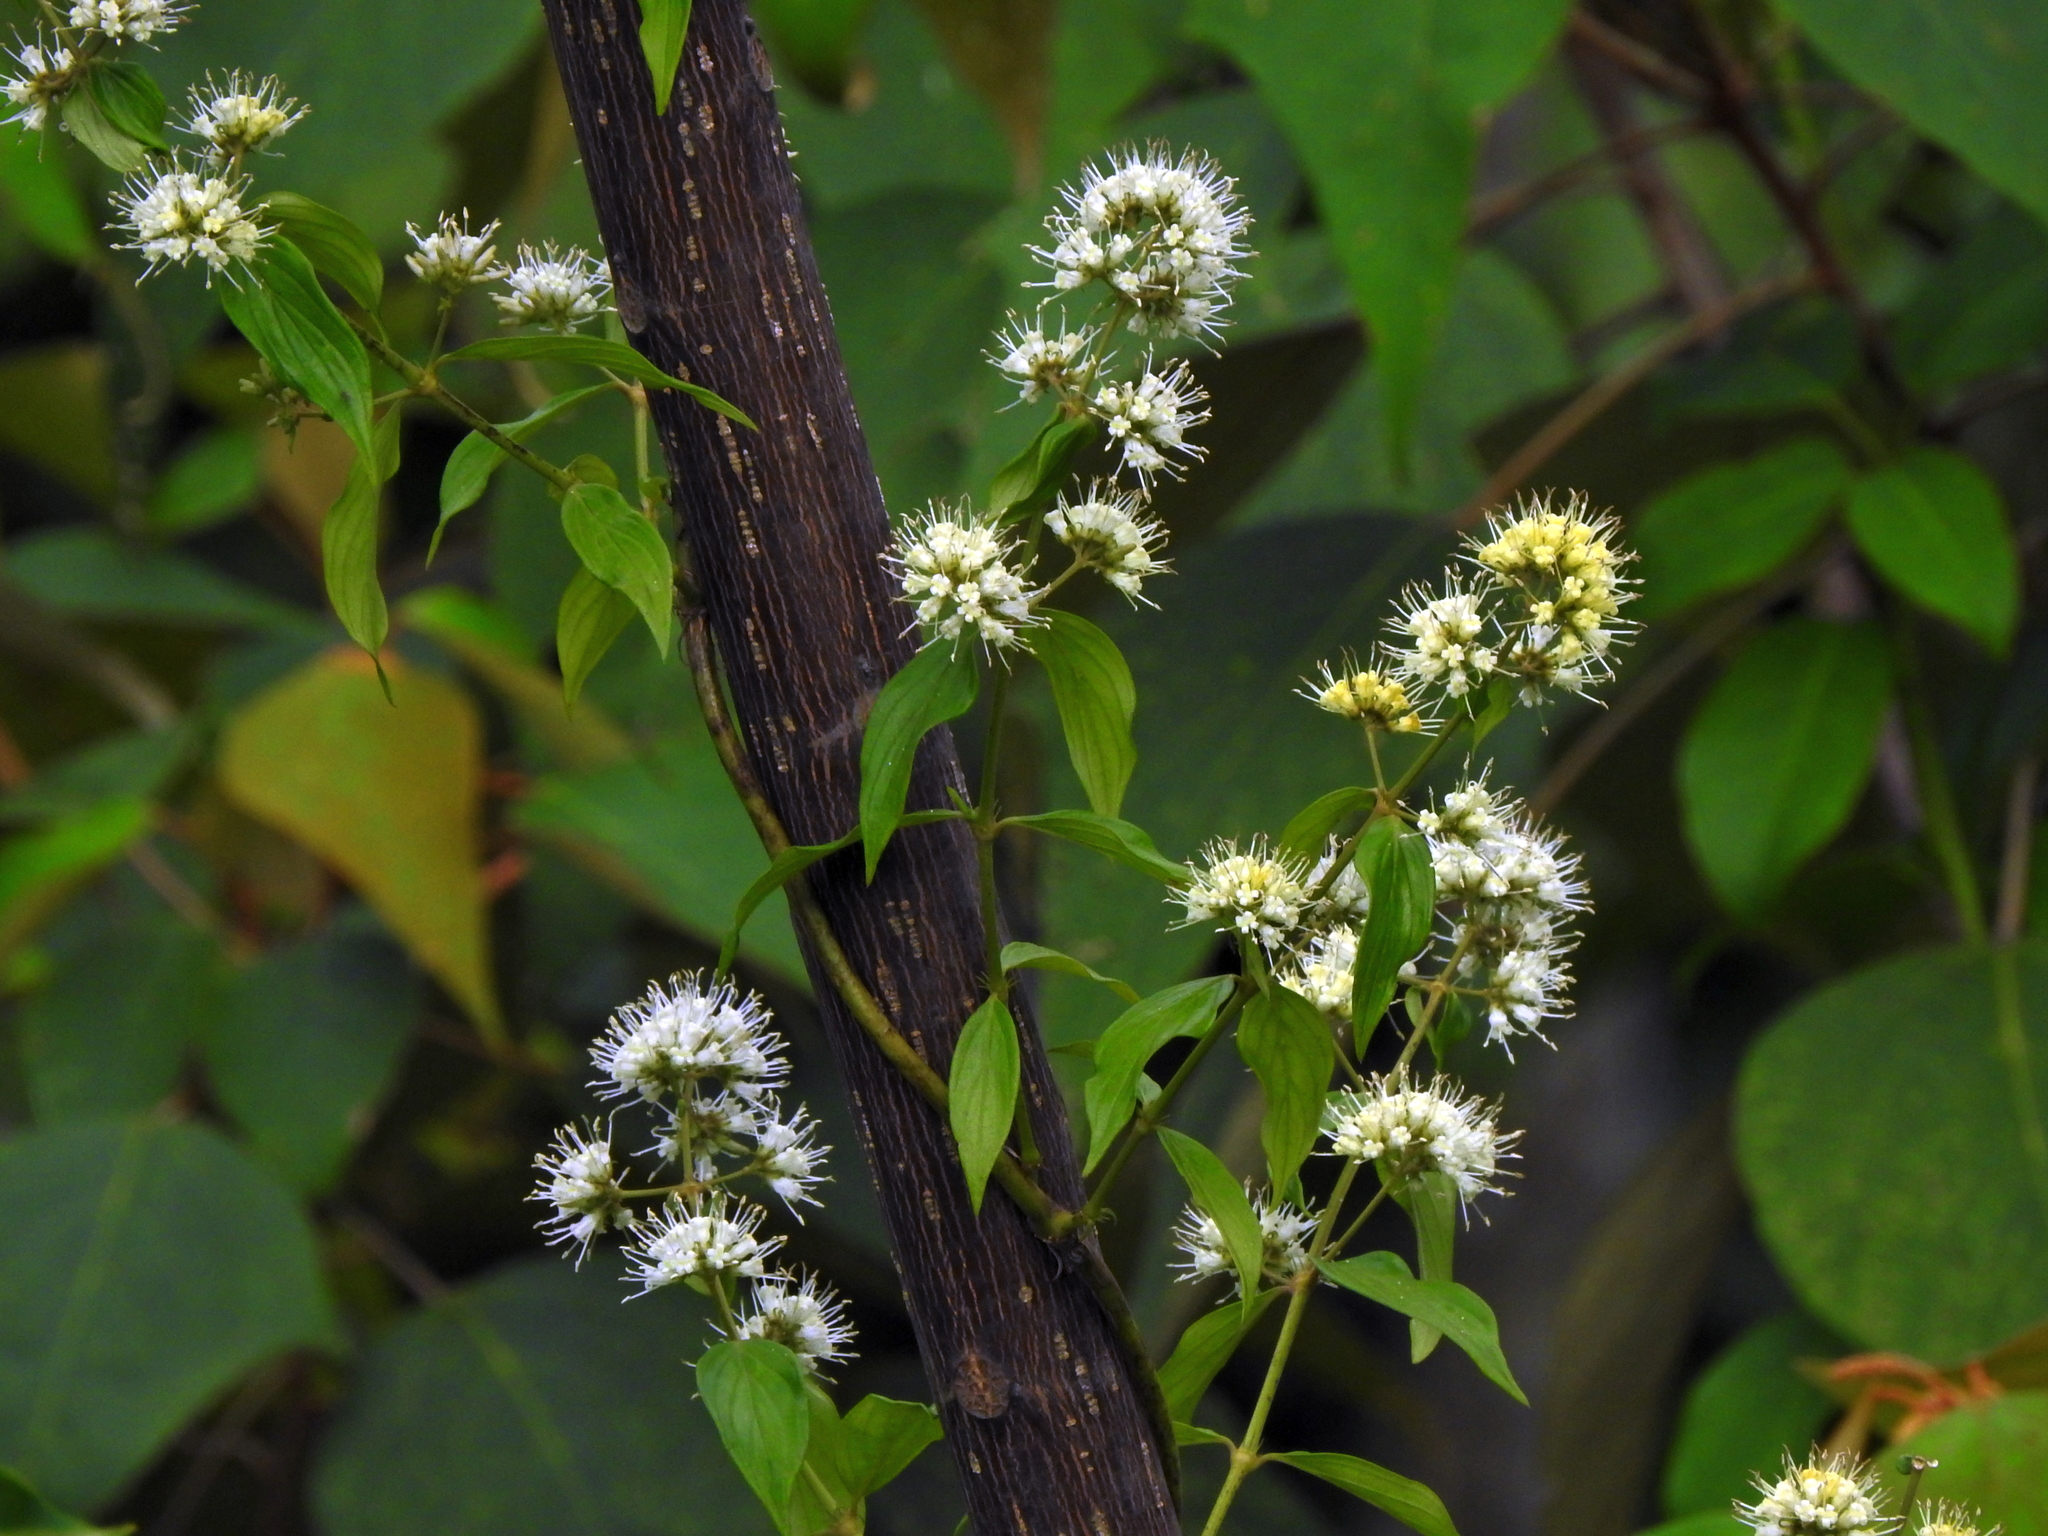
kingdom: Plantae
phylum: Tracheophyta
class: Magnoliopsida
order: Gentianales
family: Rubiaceae
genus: Dimetia
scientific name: Dimetia hedyotidea
